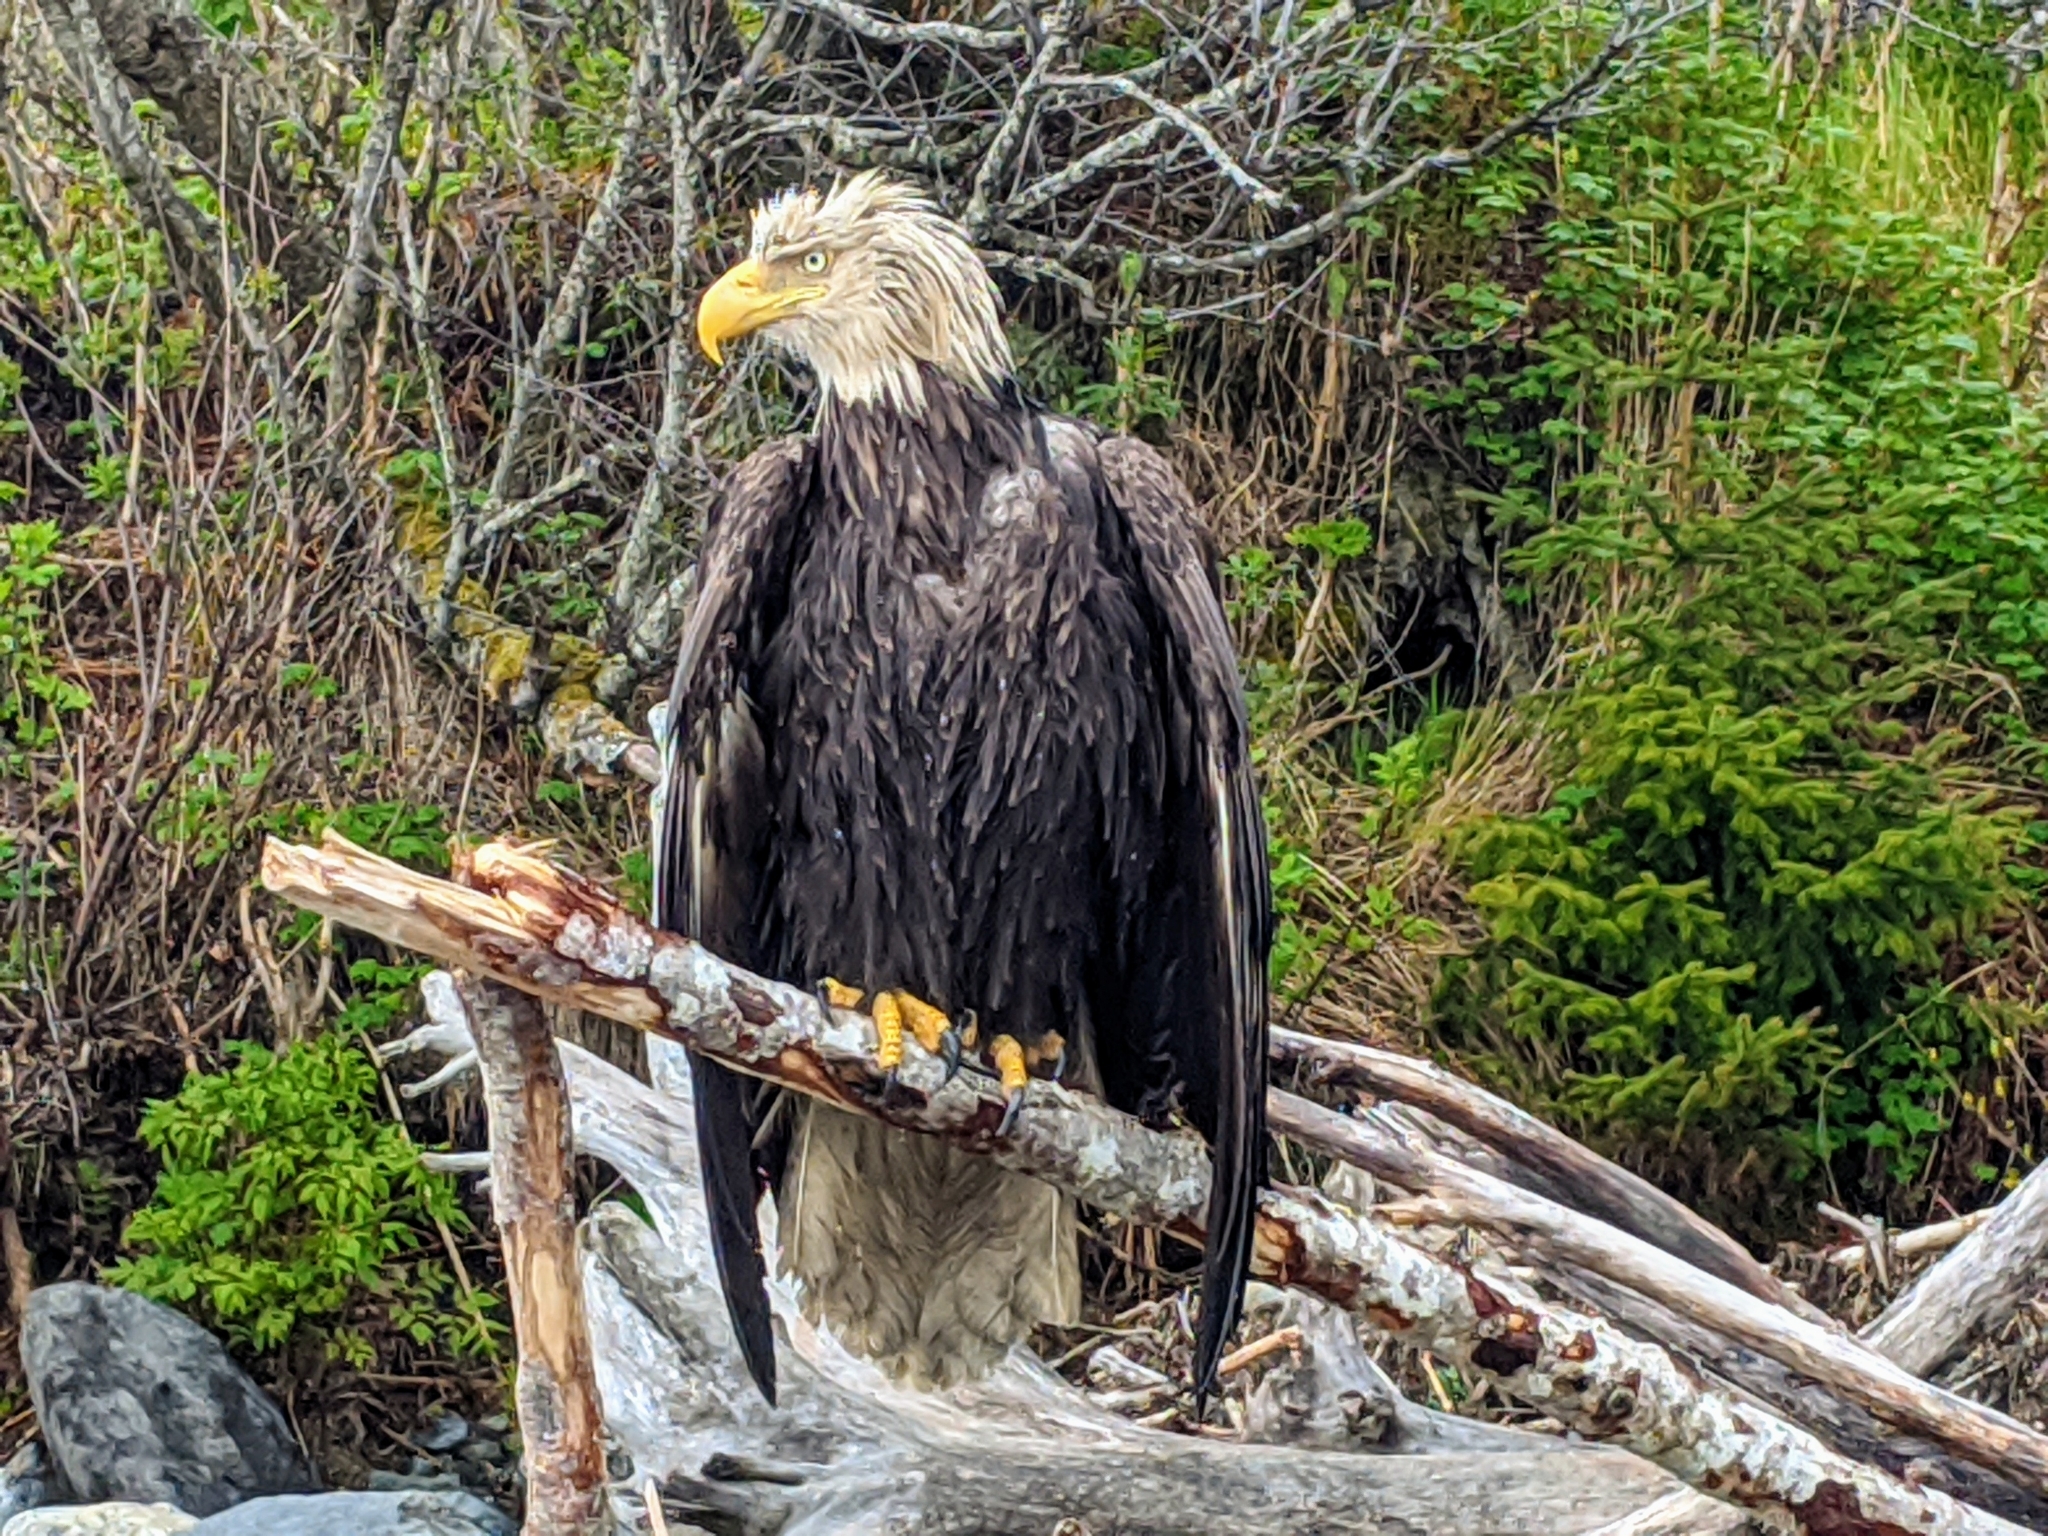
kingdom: Animalia
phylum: Chordata
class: Aves
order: Accipitriformes
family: Accipitridae
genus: Haliaeetus
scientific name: Haliaeetus leucocephalus
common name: Bald eagle
